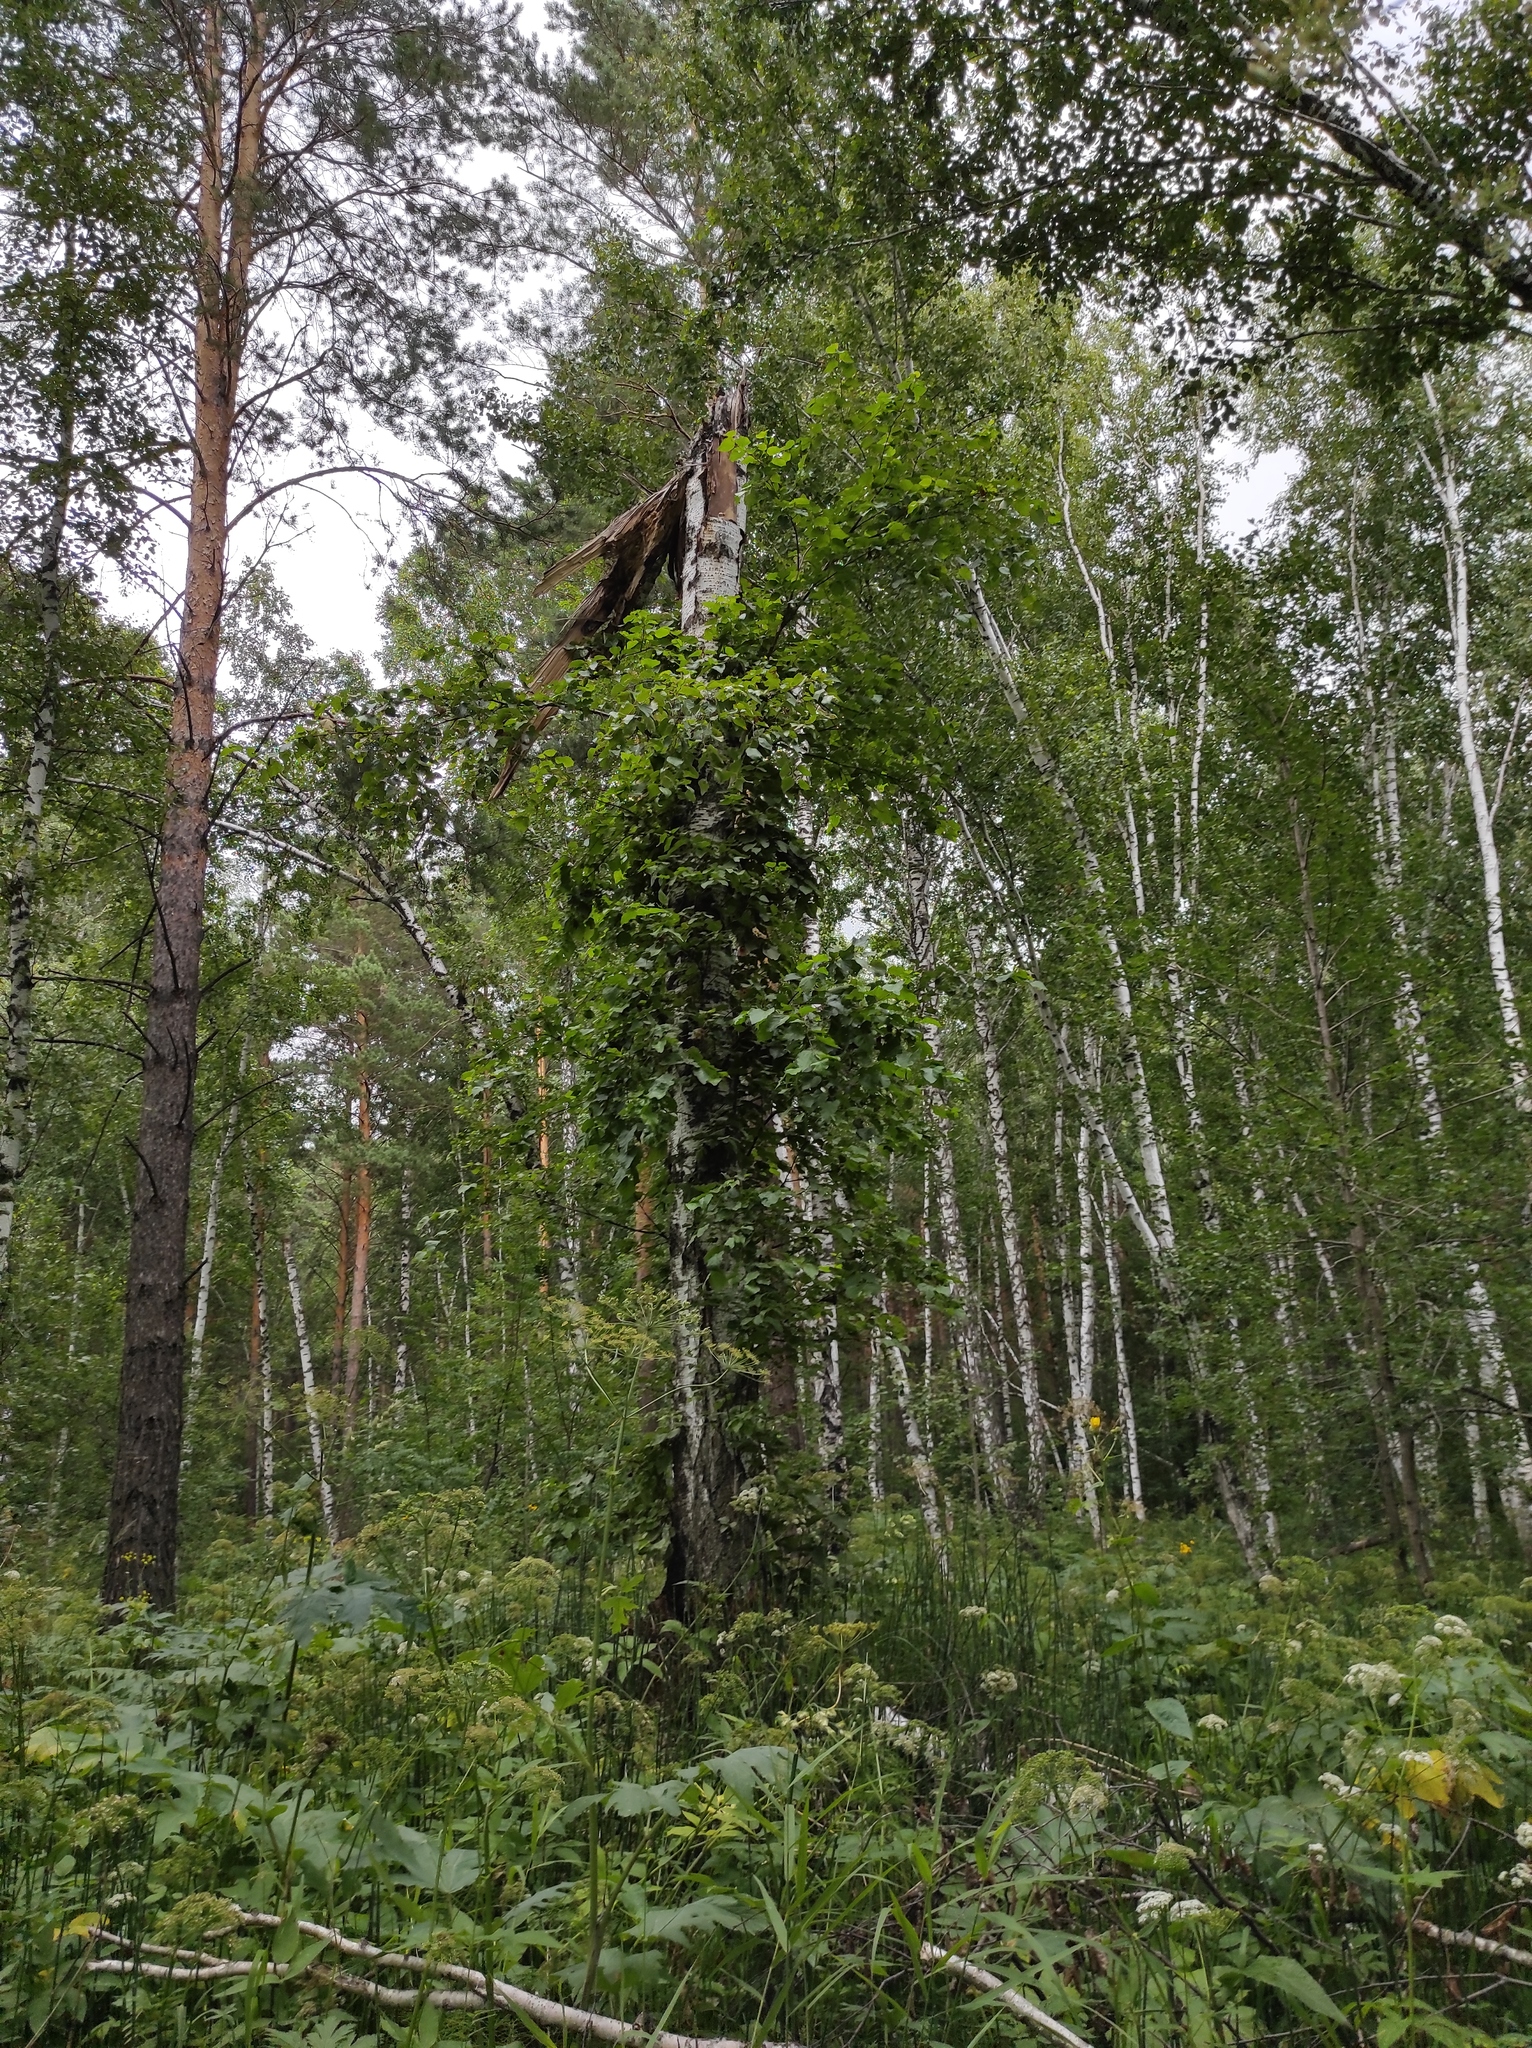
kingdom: Plantae
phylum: Tracheophyta
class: Pinopsida
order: Pinales
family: Pinaceae
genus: Pinus
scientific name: Pinus sylvestris
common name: Scots pine
